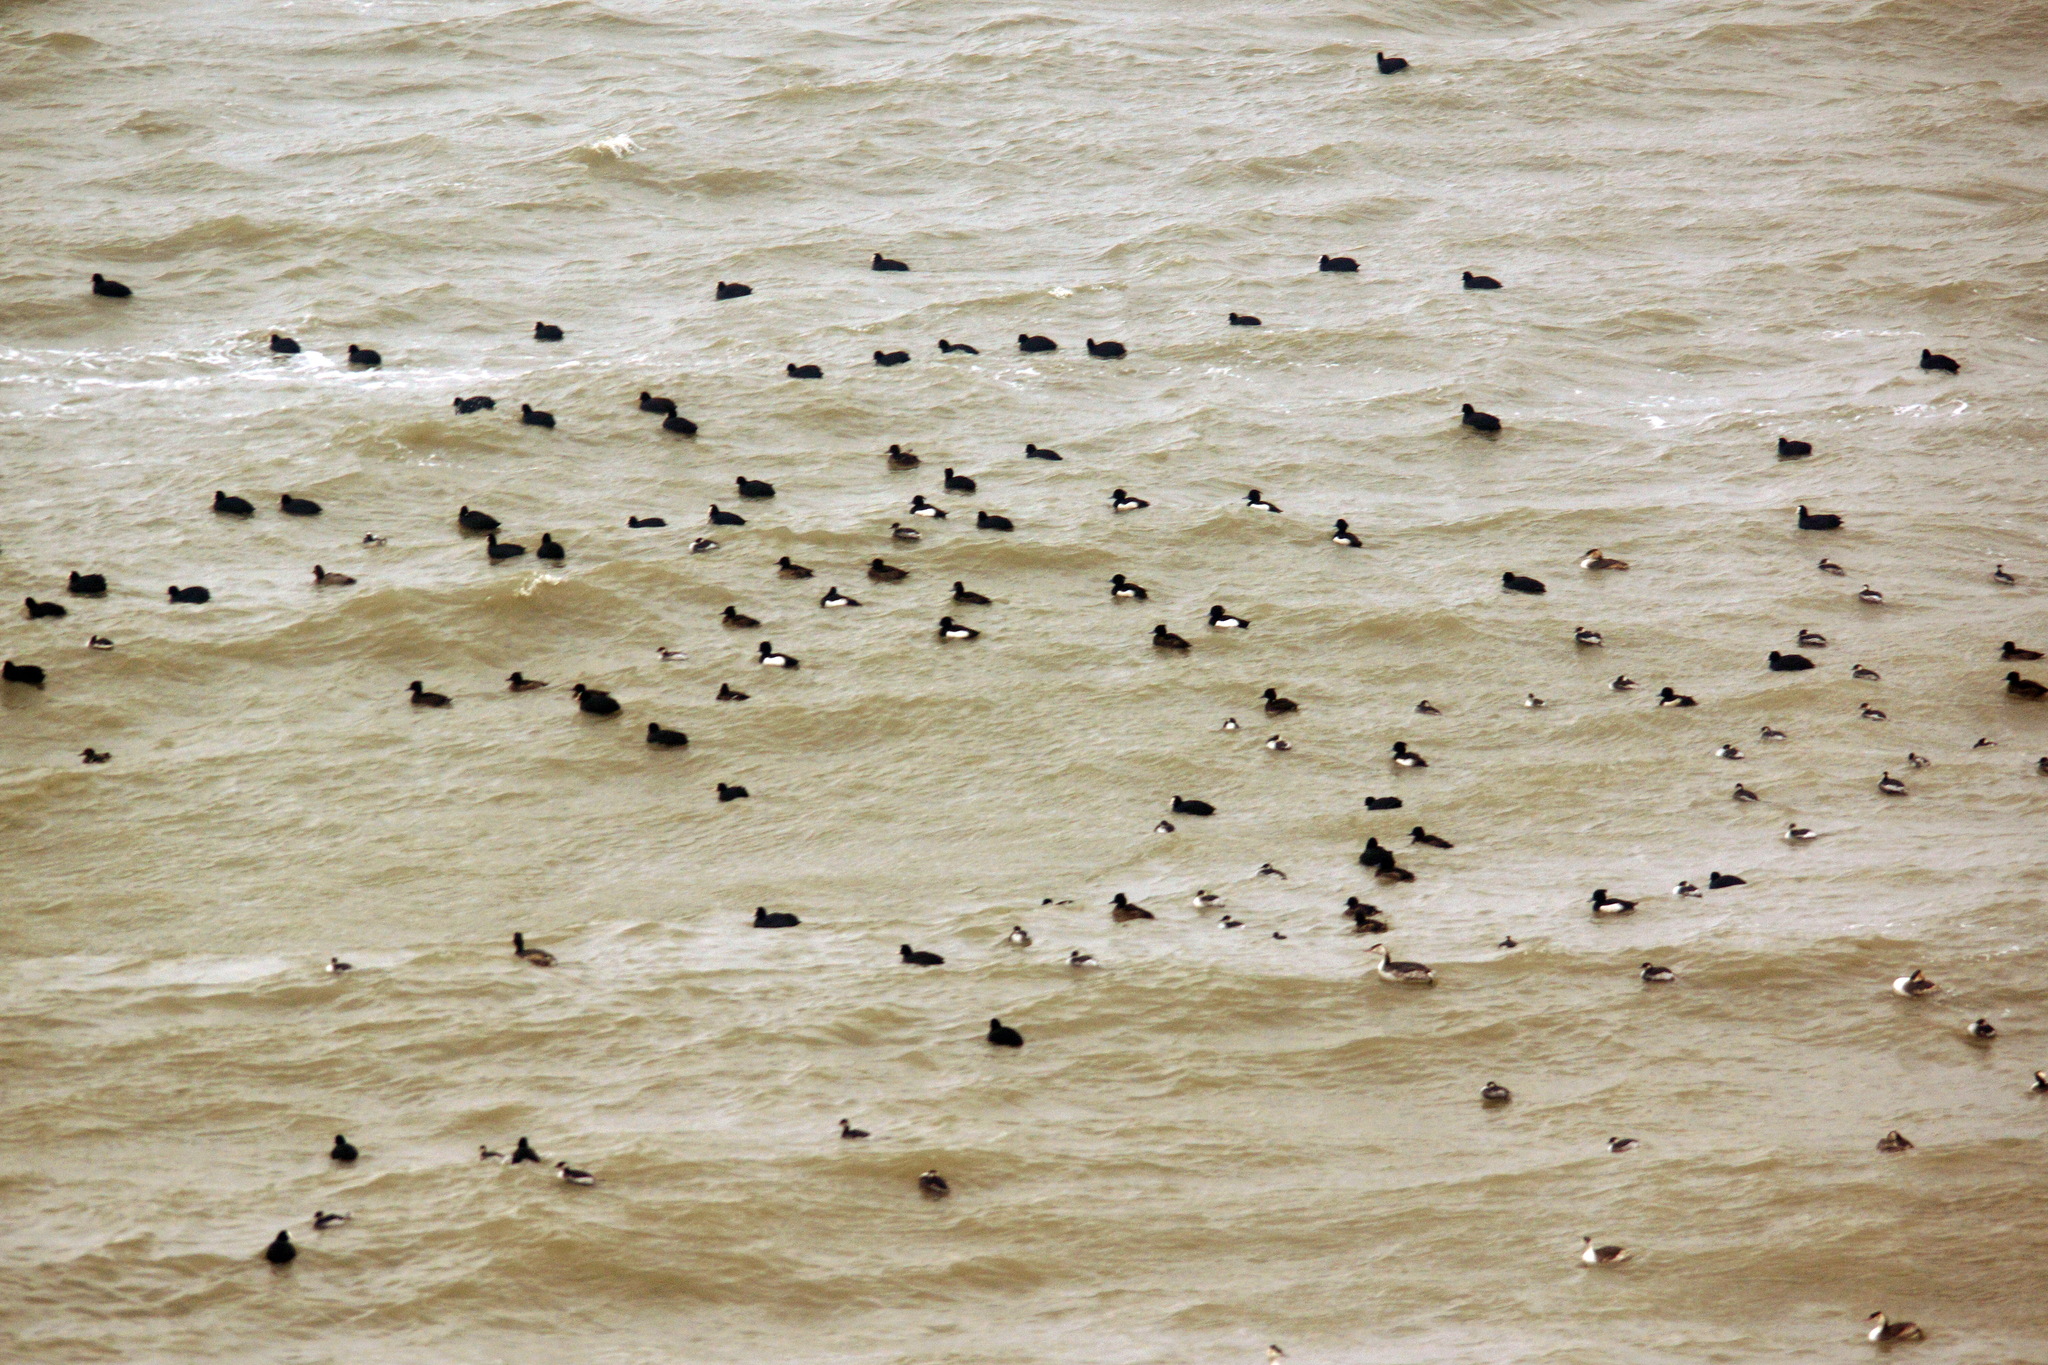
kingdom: Animalia
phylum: Chordata
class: Aves
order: Podicipediformes
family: Podicipedidae
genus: Podiceps
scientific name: Podiceps nigricollis
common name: Black-necked grebe
